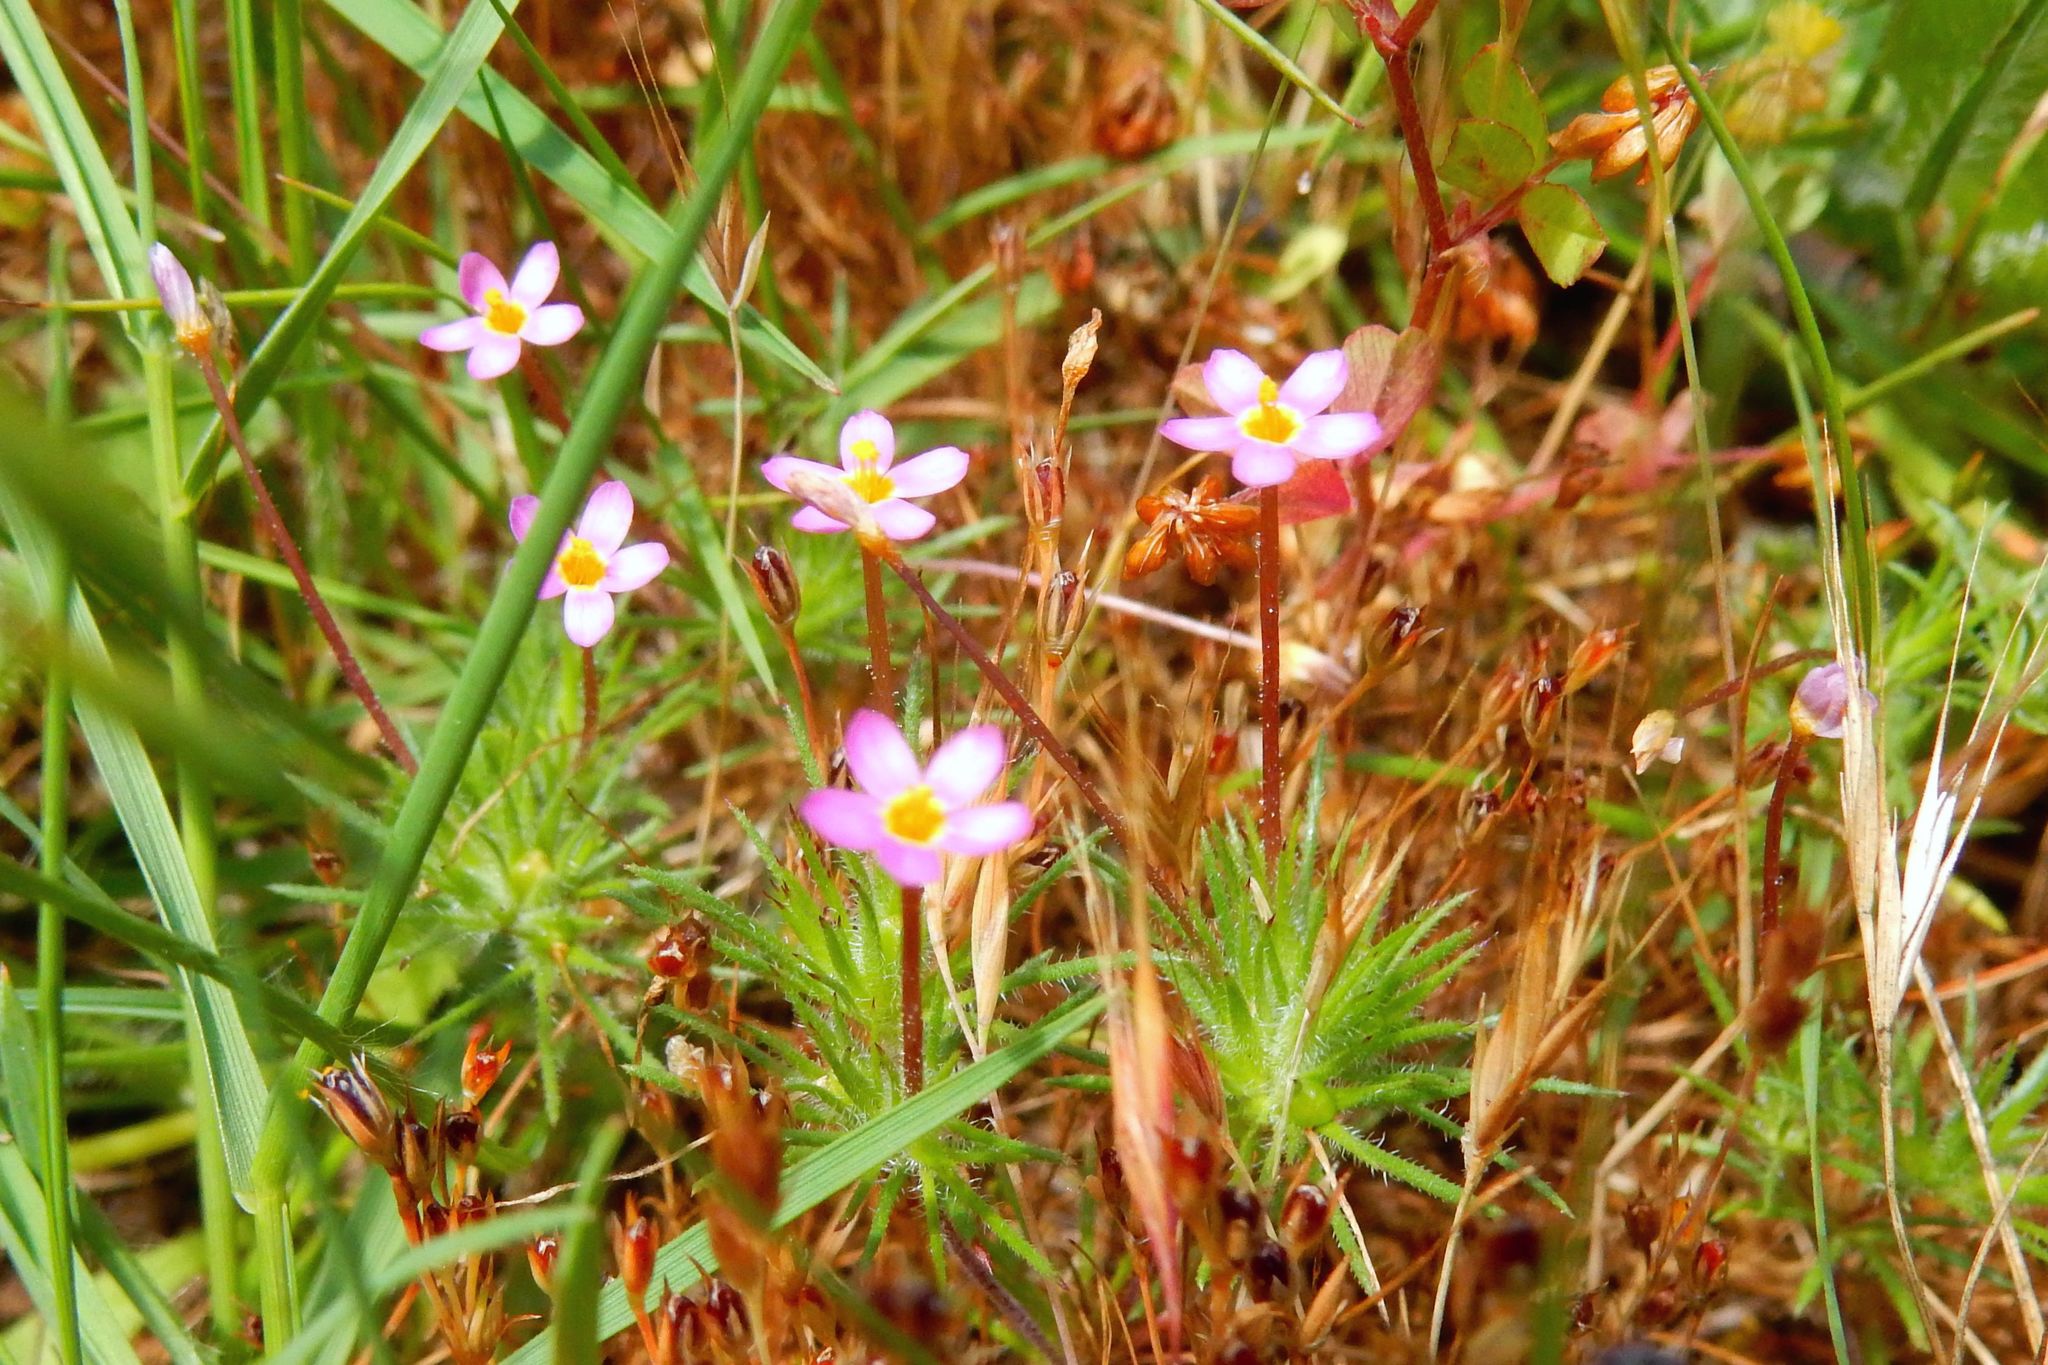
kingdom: Plantae
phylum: Tracheophyta
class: Magnoliopsida
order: Ericales
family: Polemoniaceae
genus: Leptosiphon
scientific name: Leptosiphon bicolor
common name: True babystars
